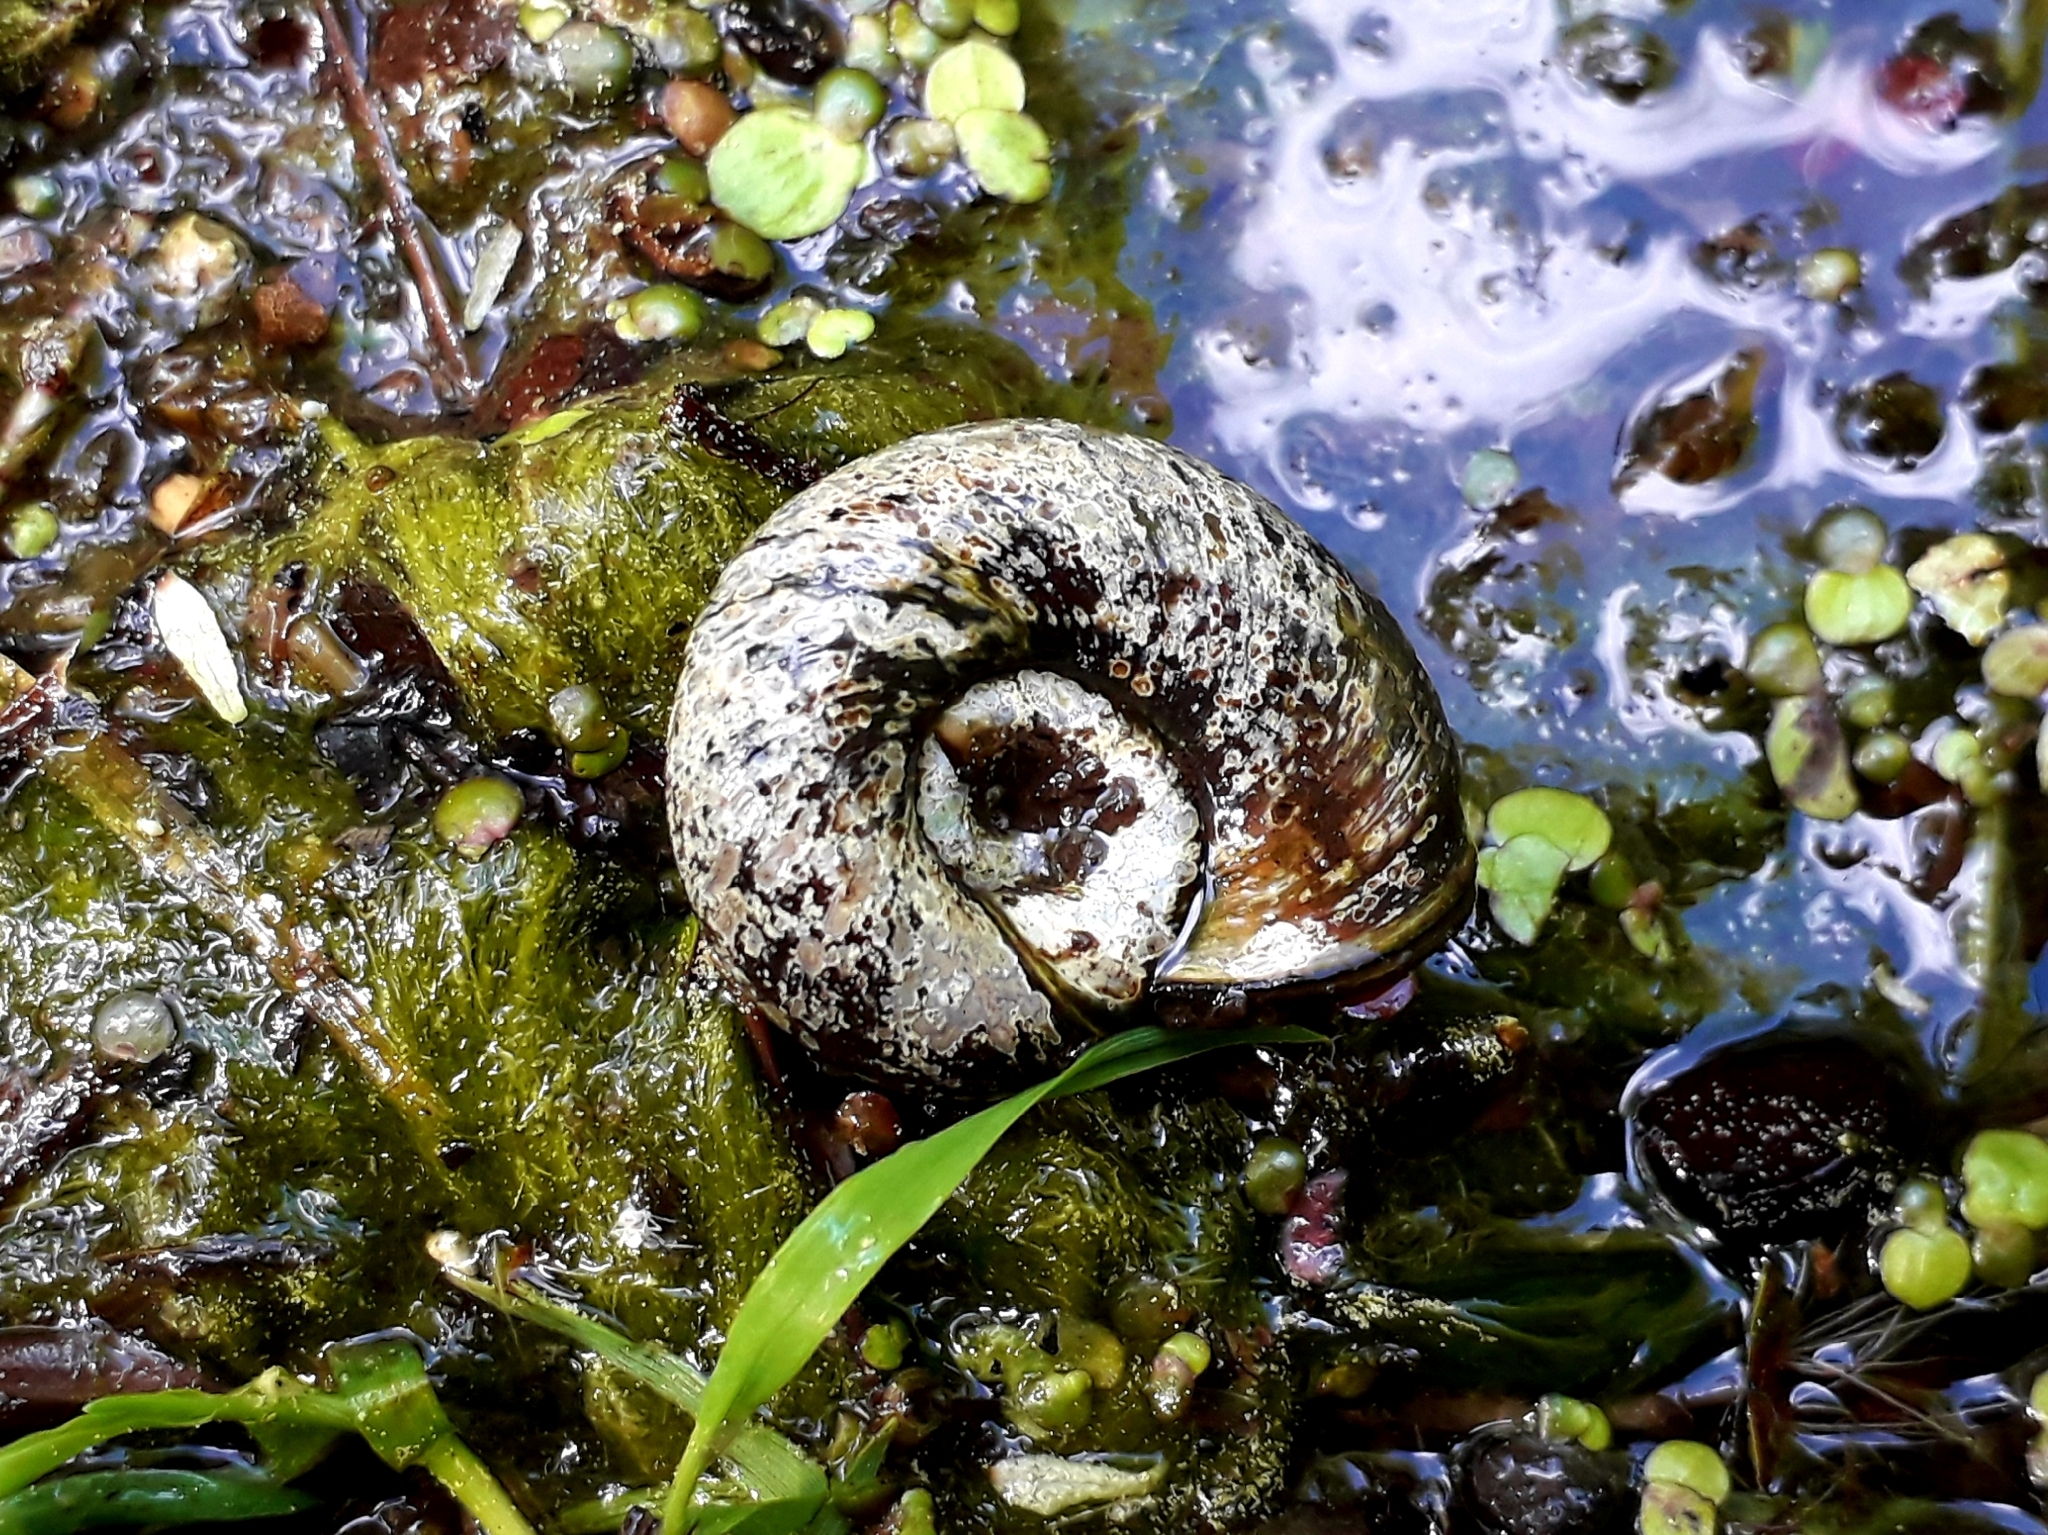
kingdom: Animalia
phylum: Mollusca
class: Gastropoda
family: Planorbidae
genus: Planorbarius
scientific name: Planorbarius corneus
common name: Great ramshorn
